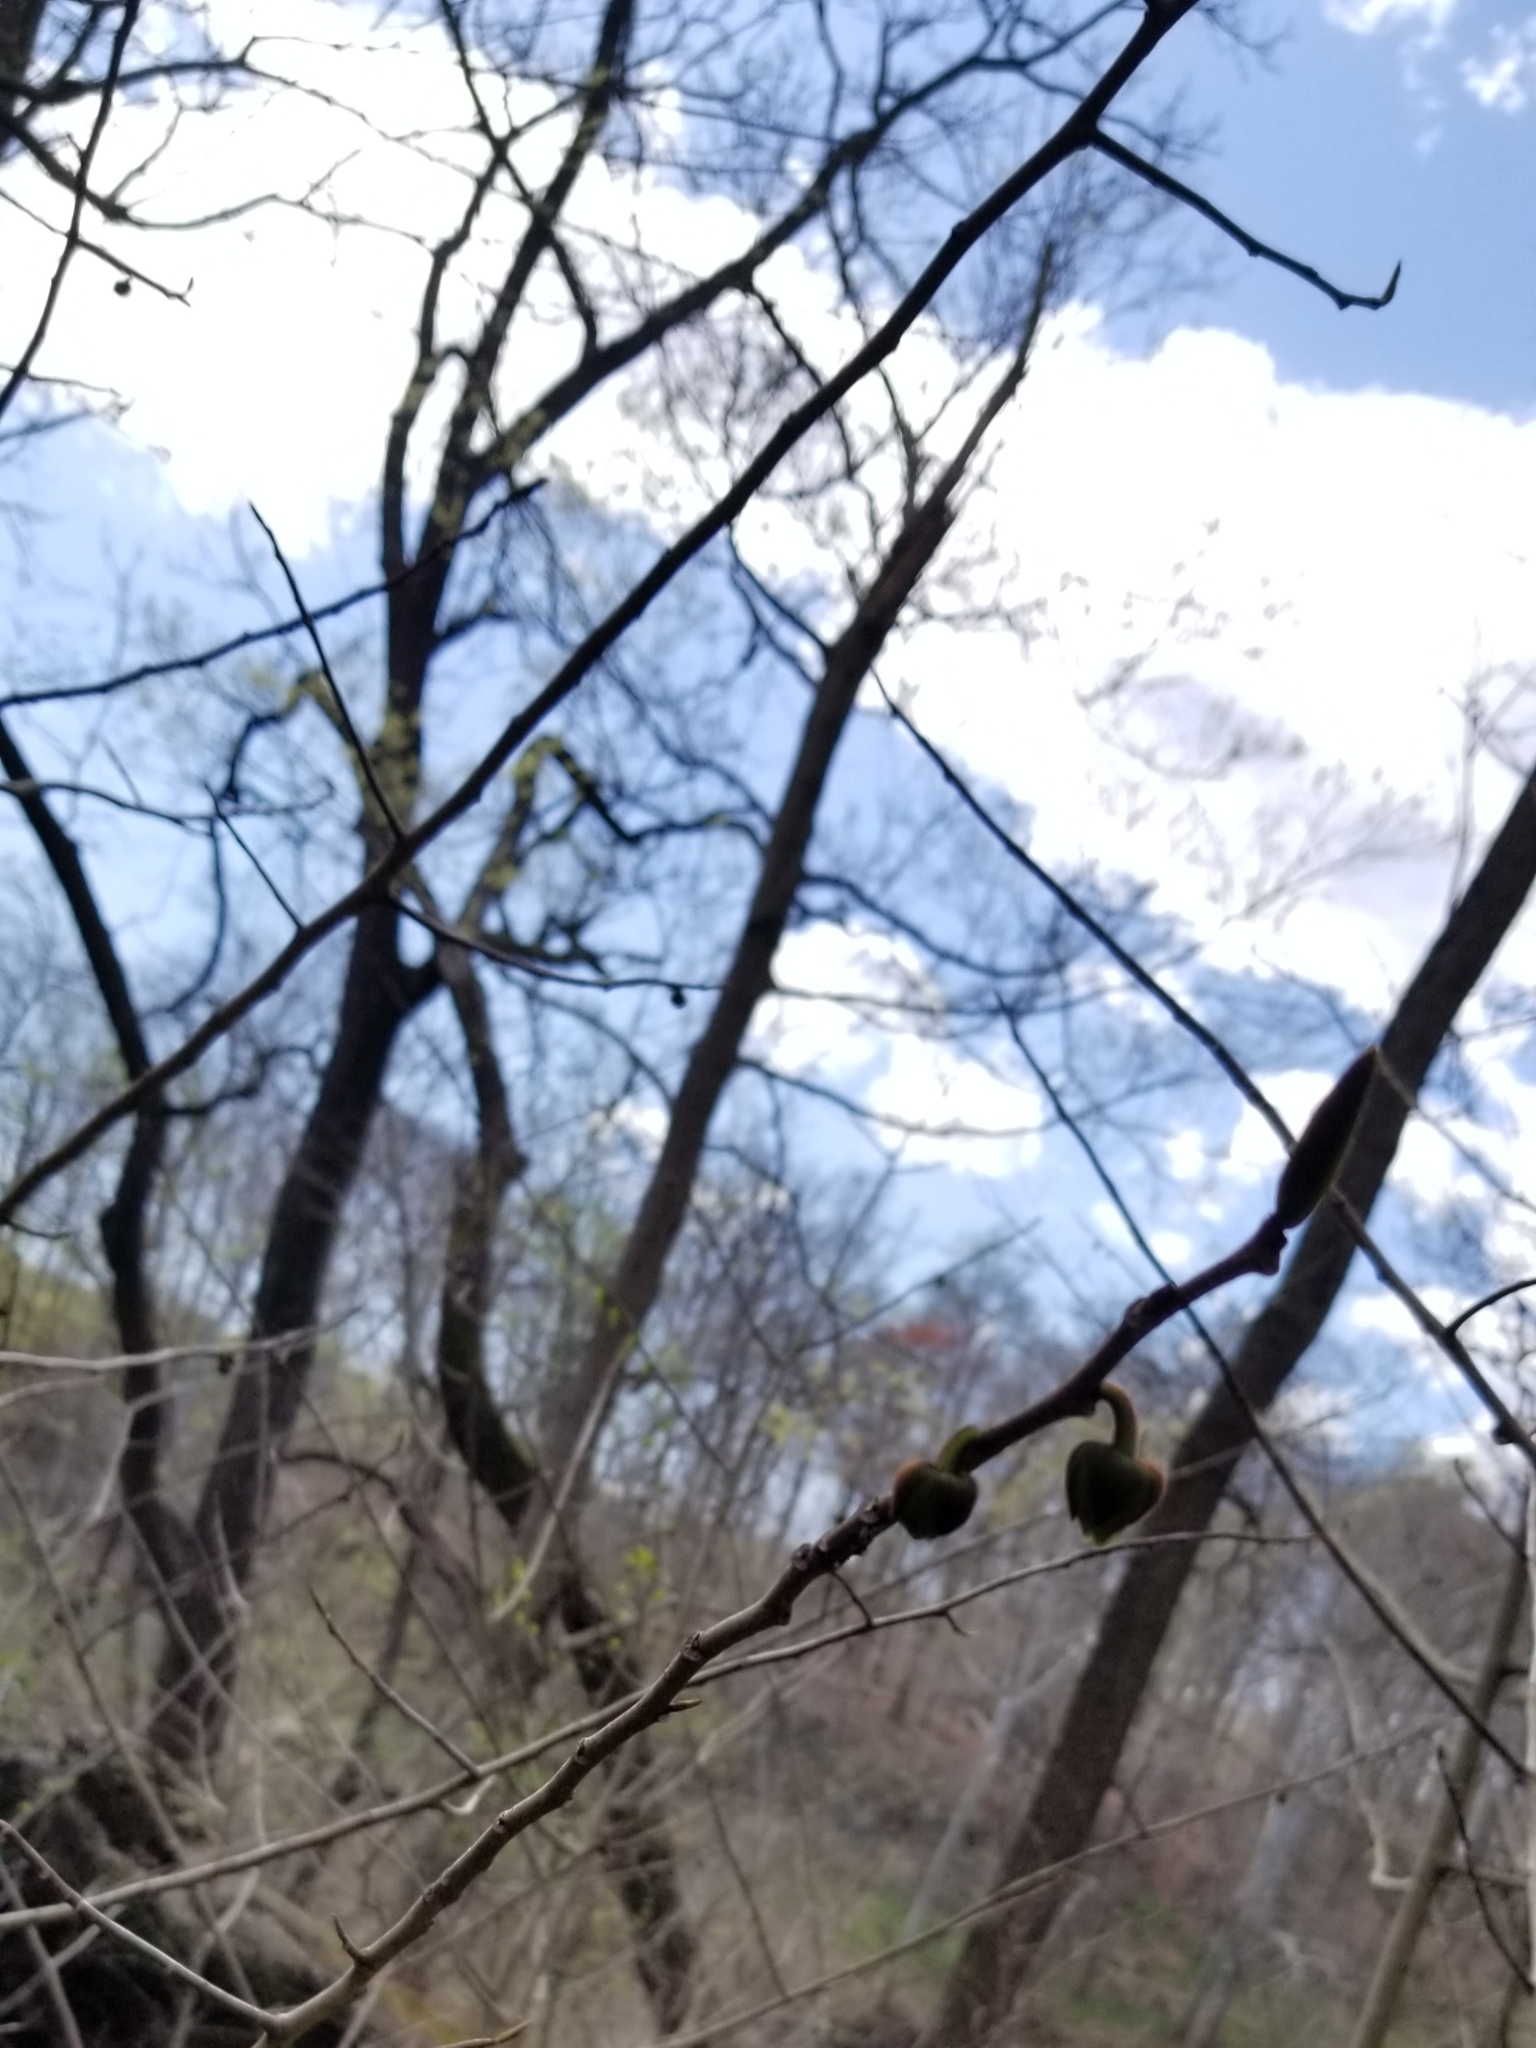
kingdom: Plantae
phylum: Tracheophyta
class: Magnoliopsida
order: Magnoliales
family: Annonaceae
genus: Asimina
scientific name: Asimina triloba
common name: Dog-banana
